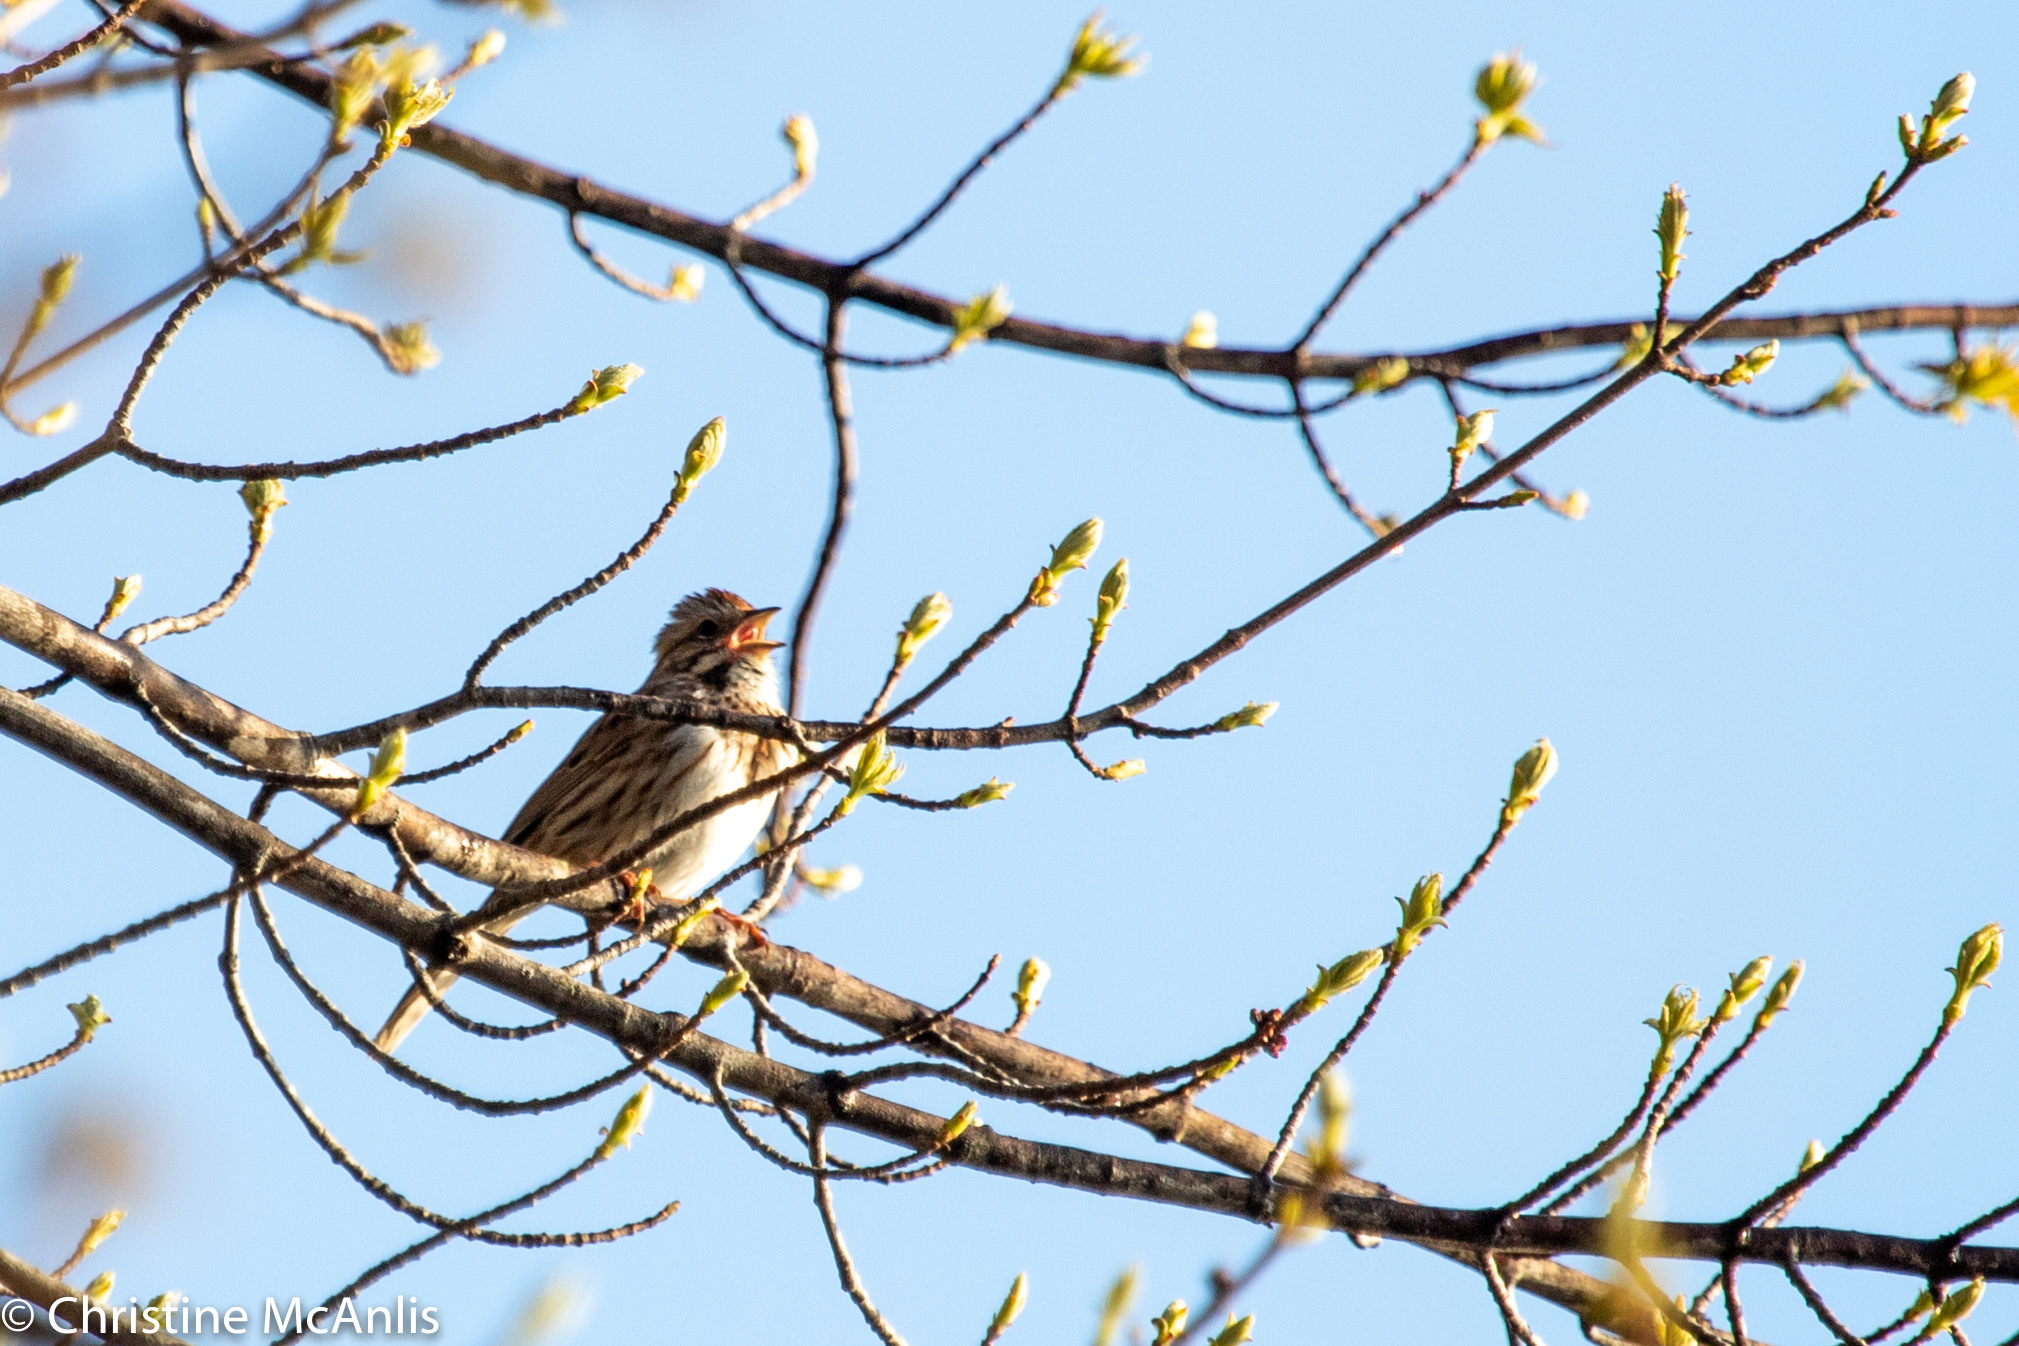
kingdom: Animalia
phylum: Chordata
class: Aves
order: Passeriformes
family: Passerellidae
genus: Melospiza
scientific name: Melospiza melodia
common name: Song sparrow
